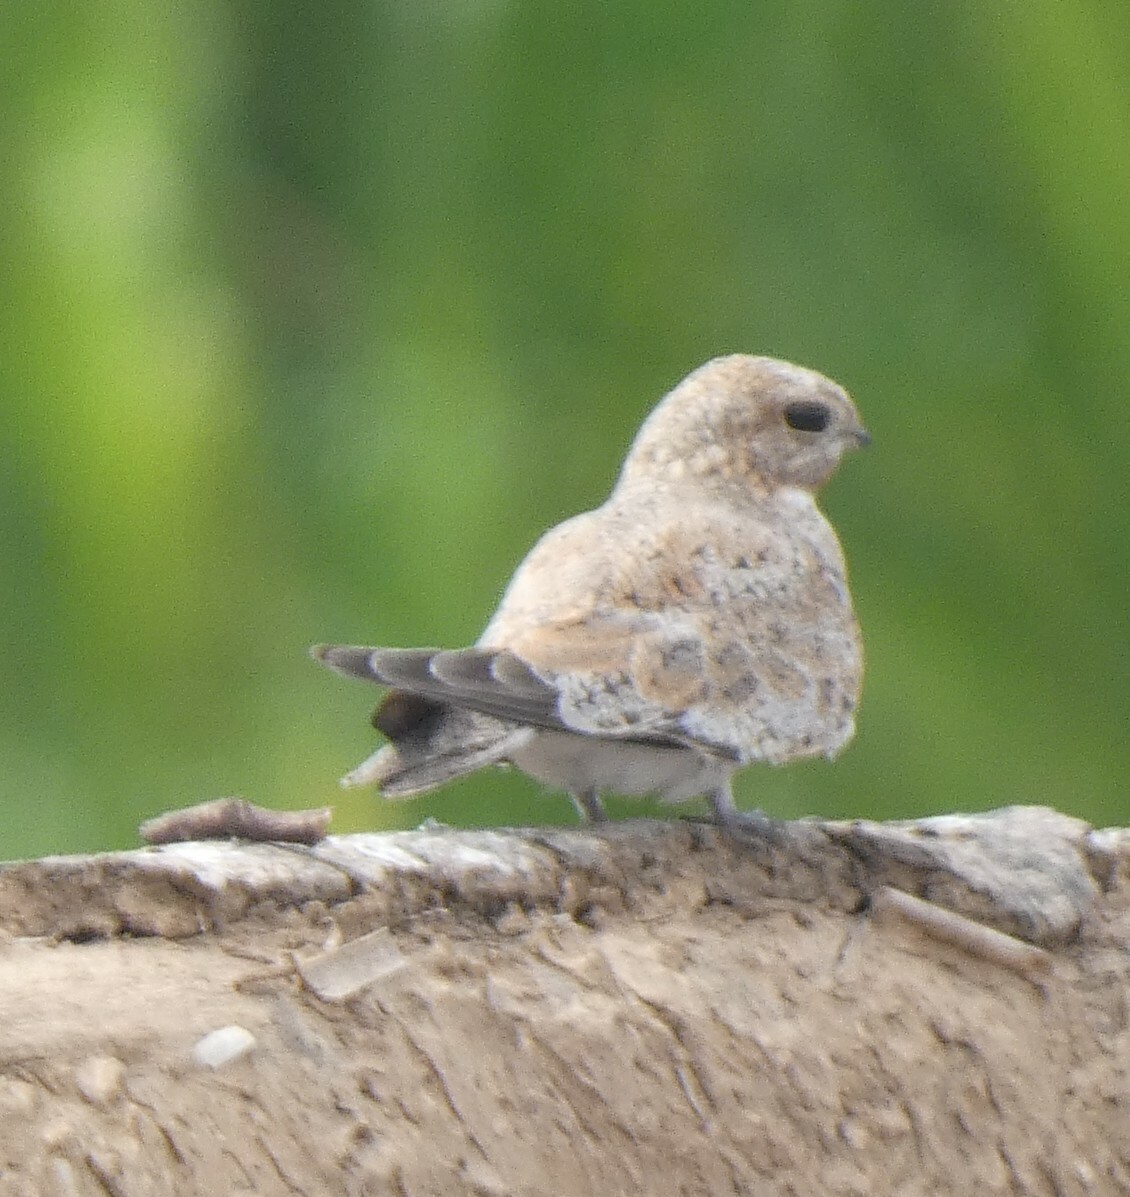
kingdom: Animalia
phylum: Chordata
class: Aves
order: Caprimulgiformes
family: Caprimulgidae
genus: Chordeiles
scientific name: Chordeiles rupestris
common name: Sand-colored nighthawk
